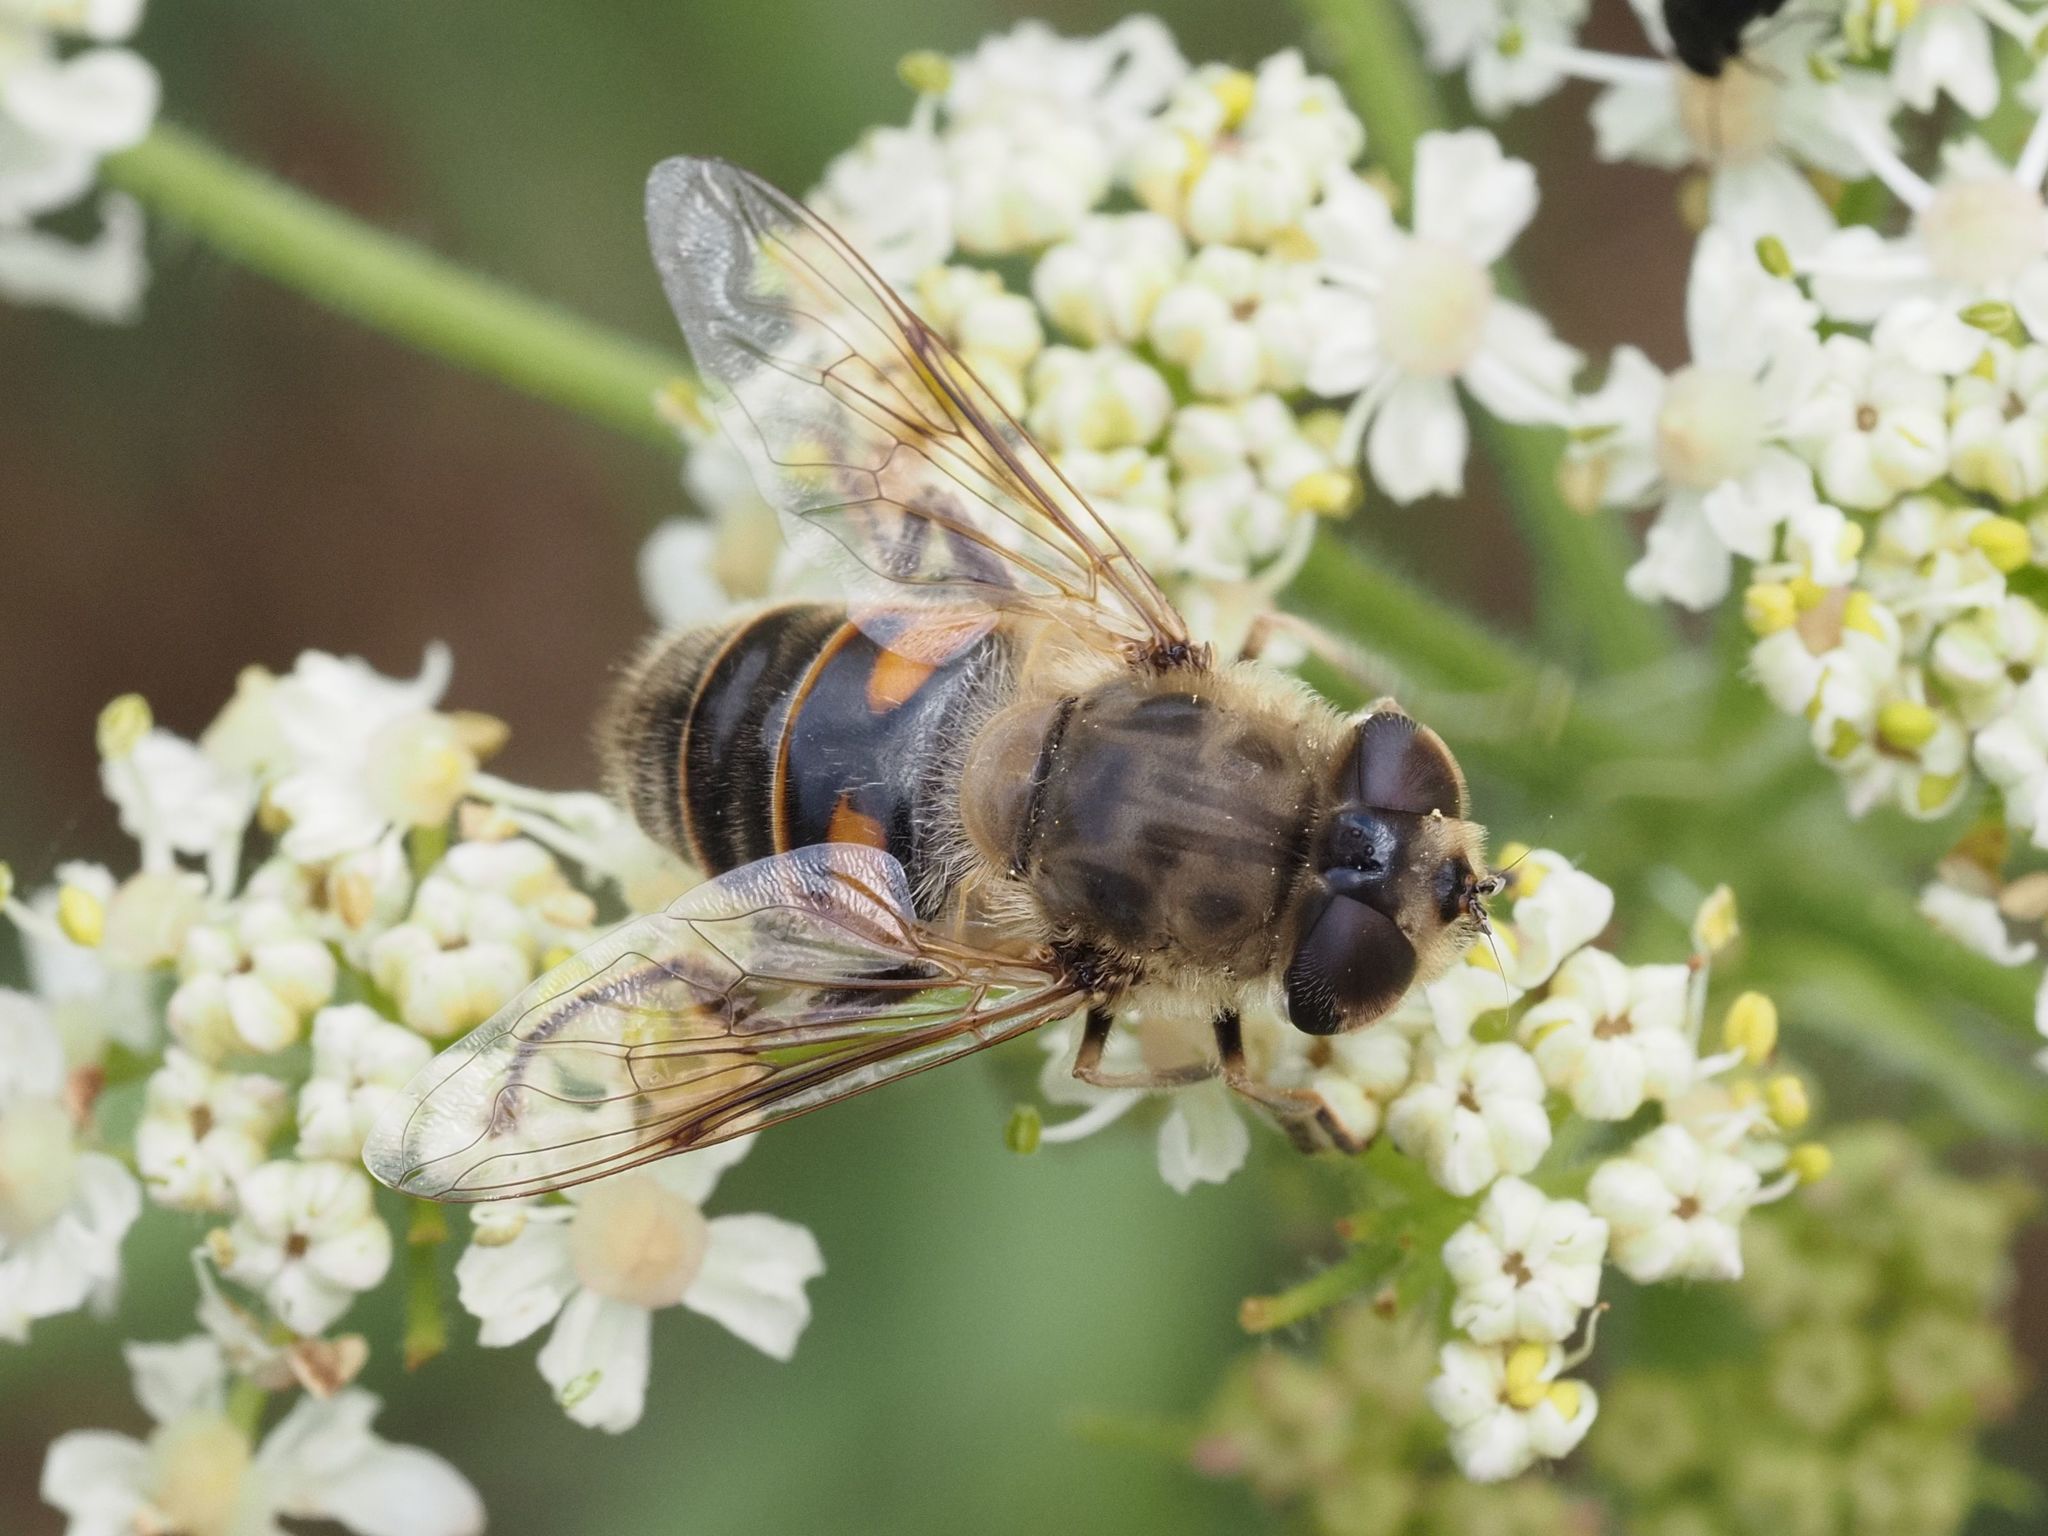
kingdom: Animalia
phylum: Arthropoda
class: Insecta
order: Diptera
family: Syrphidae
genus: Eristalis
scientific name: Eristalis tenax
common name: Drone fly
